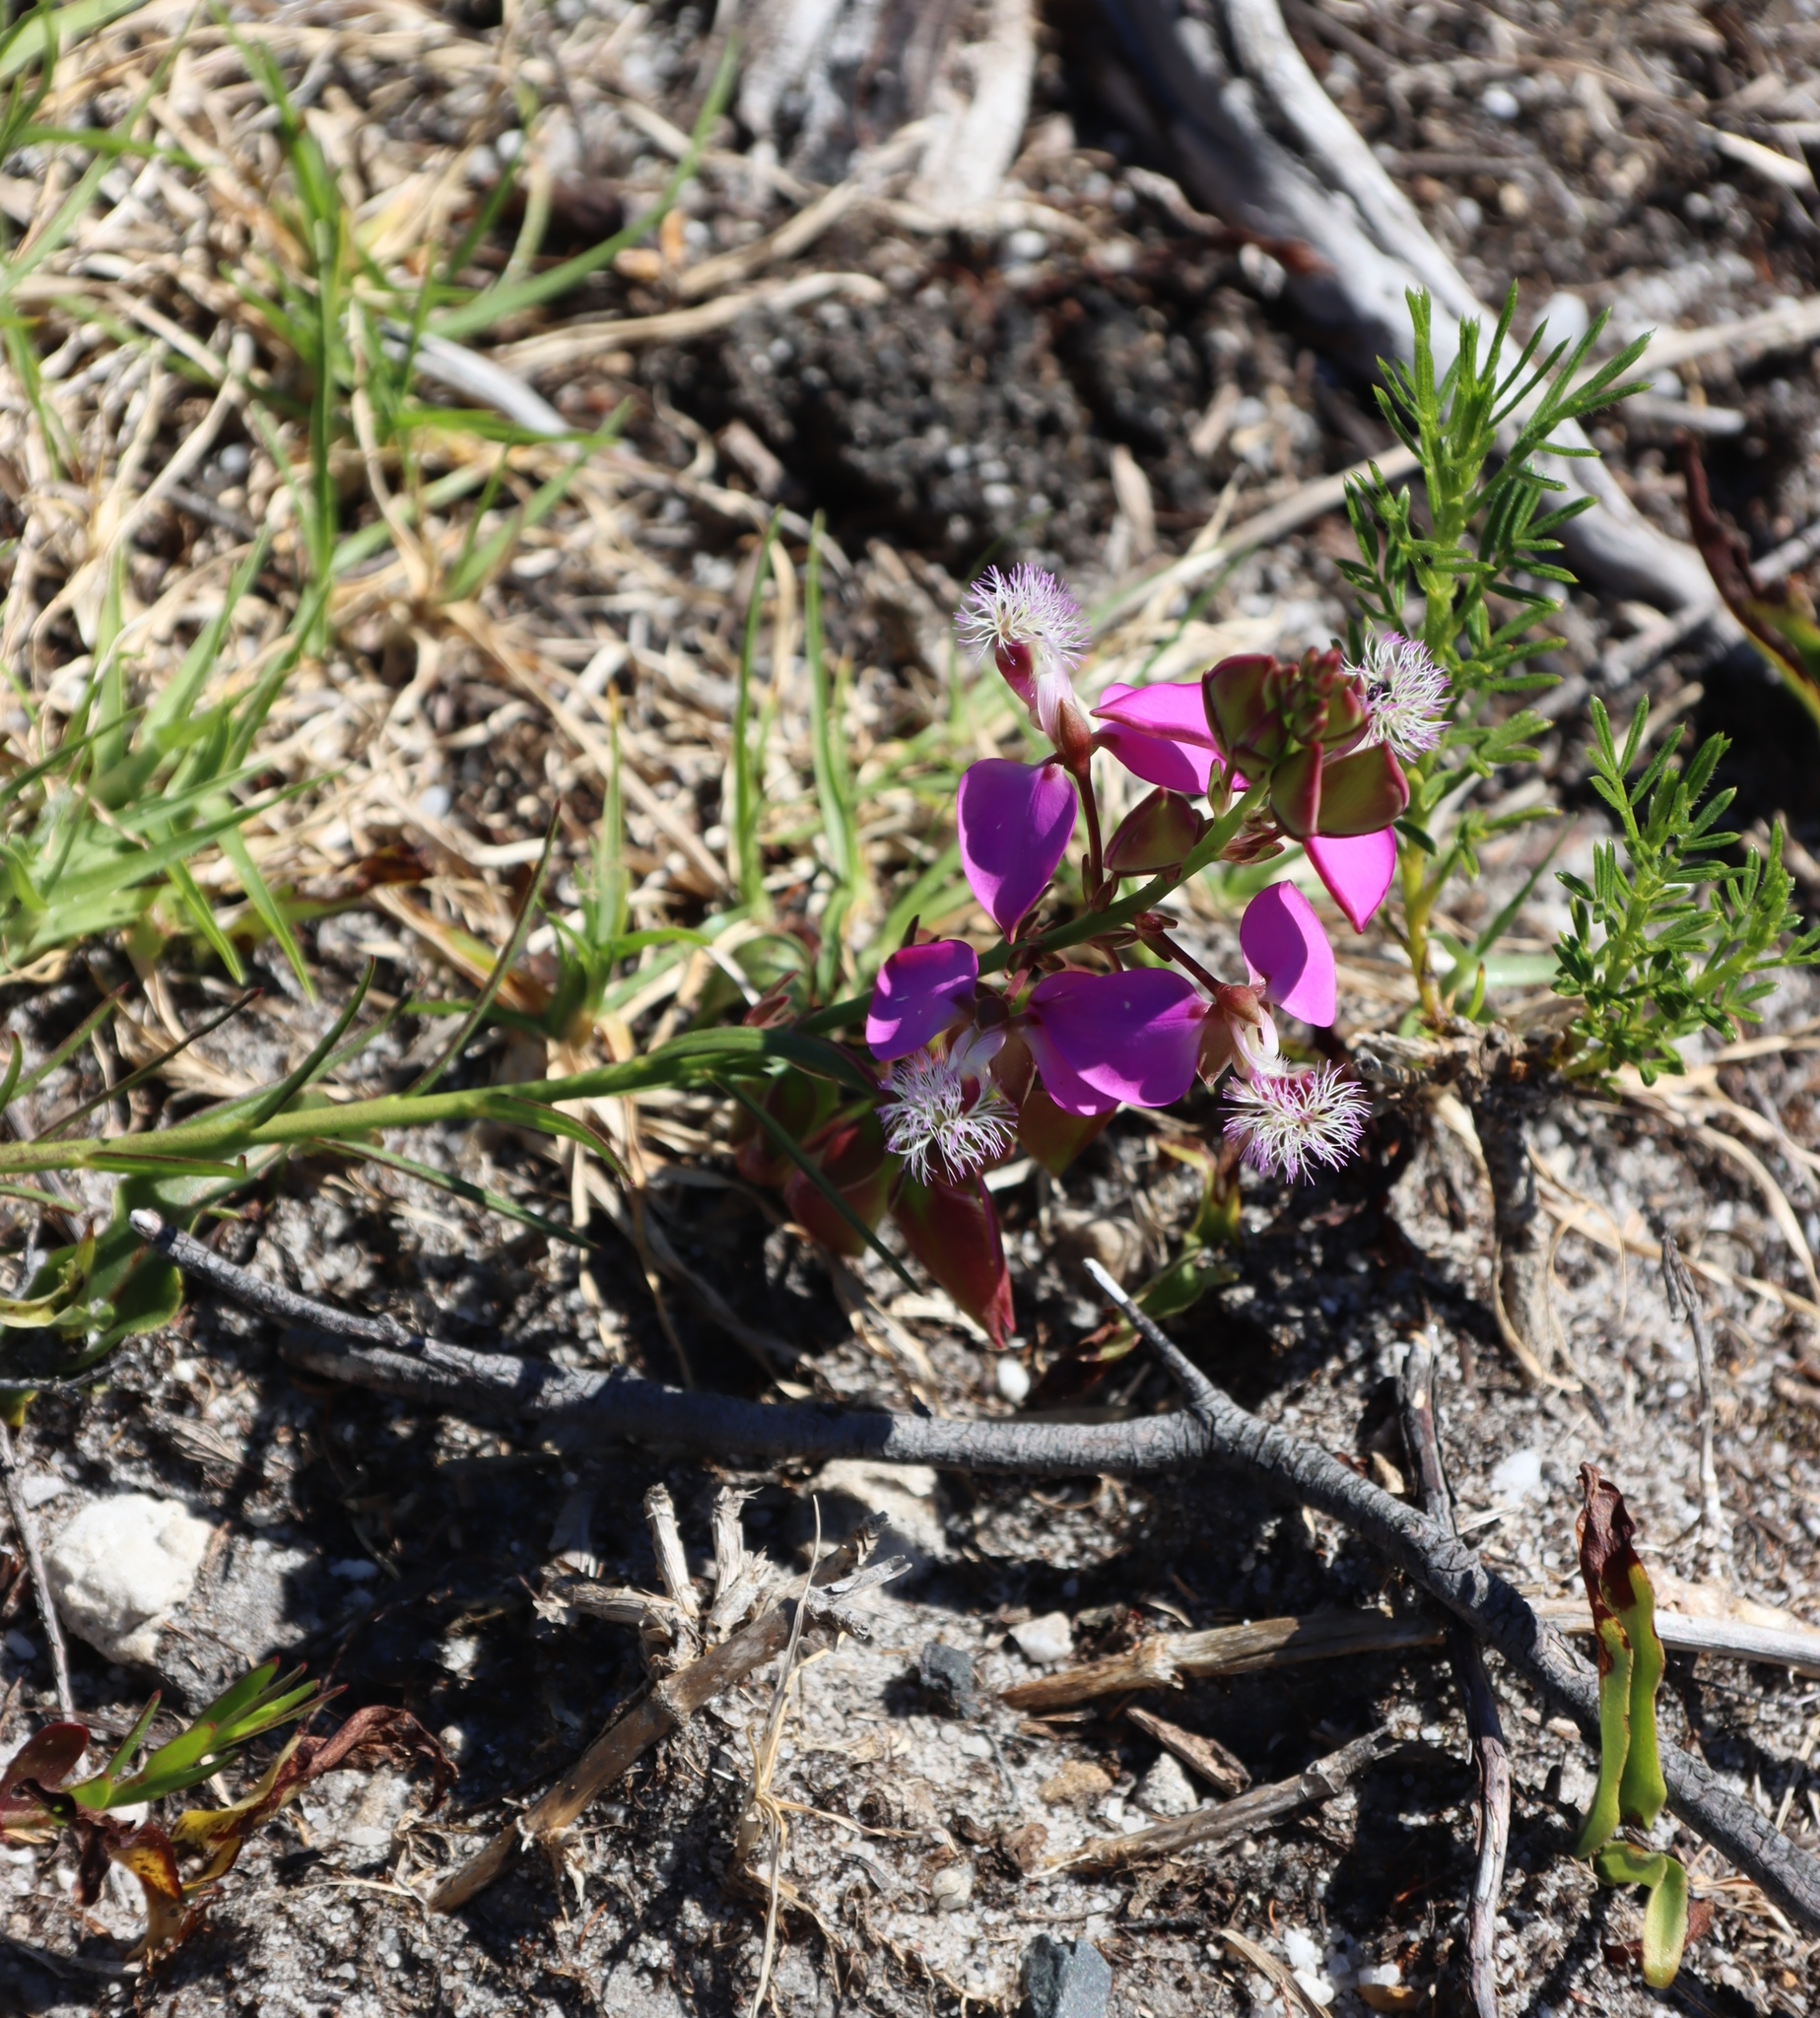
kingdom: Plantae
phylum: Tracheophyta
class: Magnoliopsida
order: Fabales
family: Polygalaceae
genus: Polygala
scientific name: Polygala bracteolata
